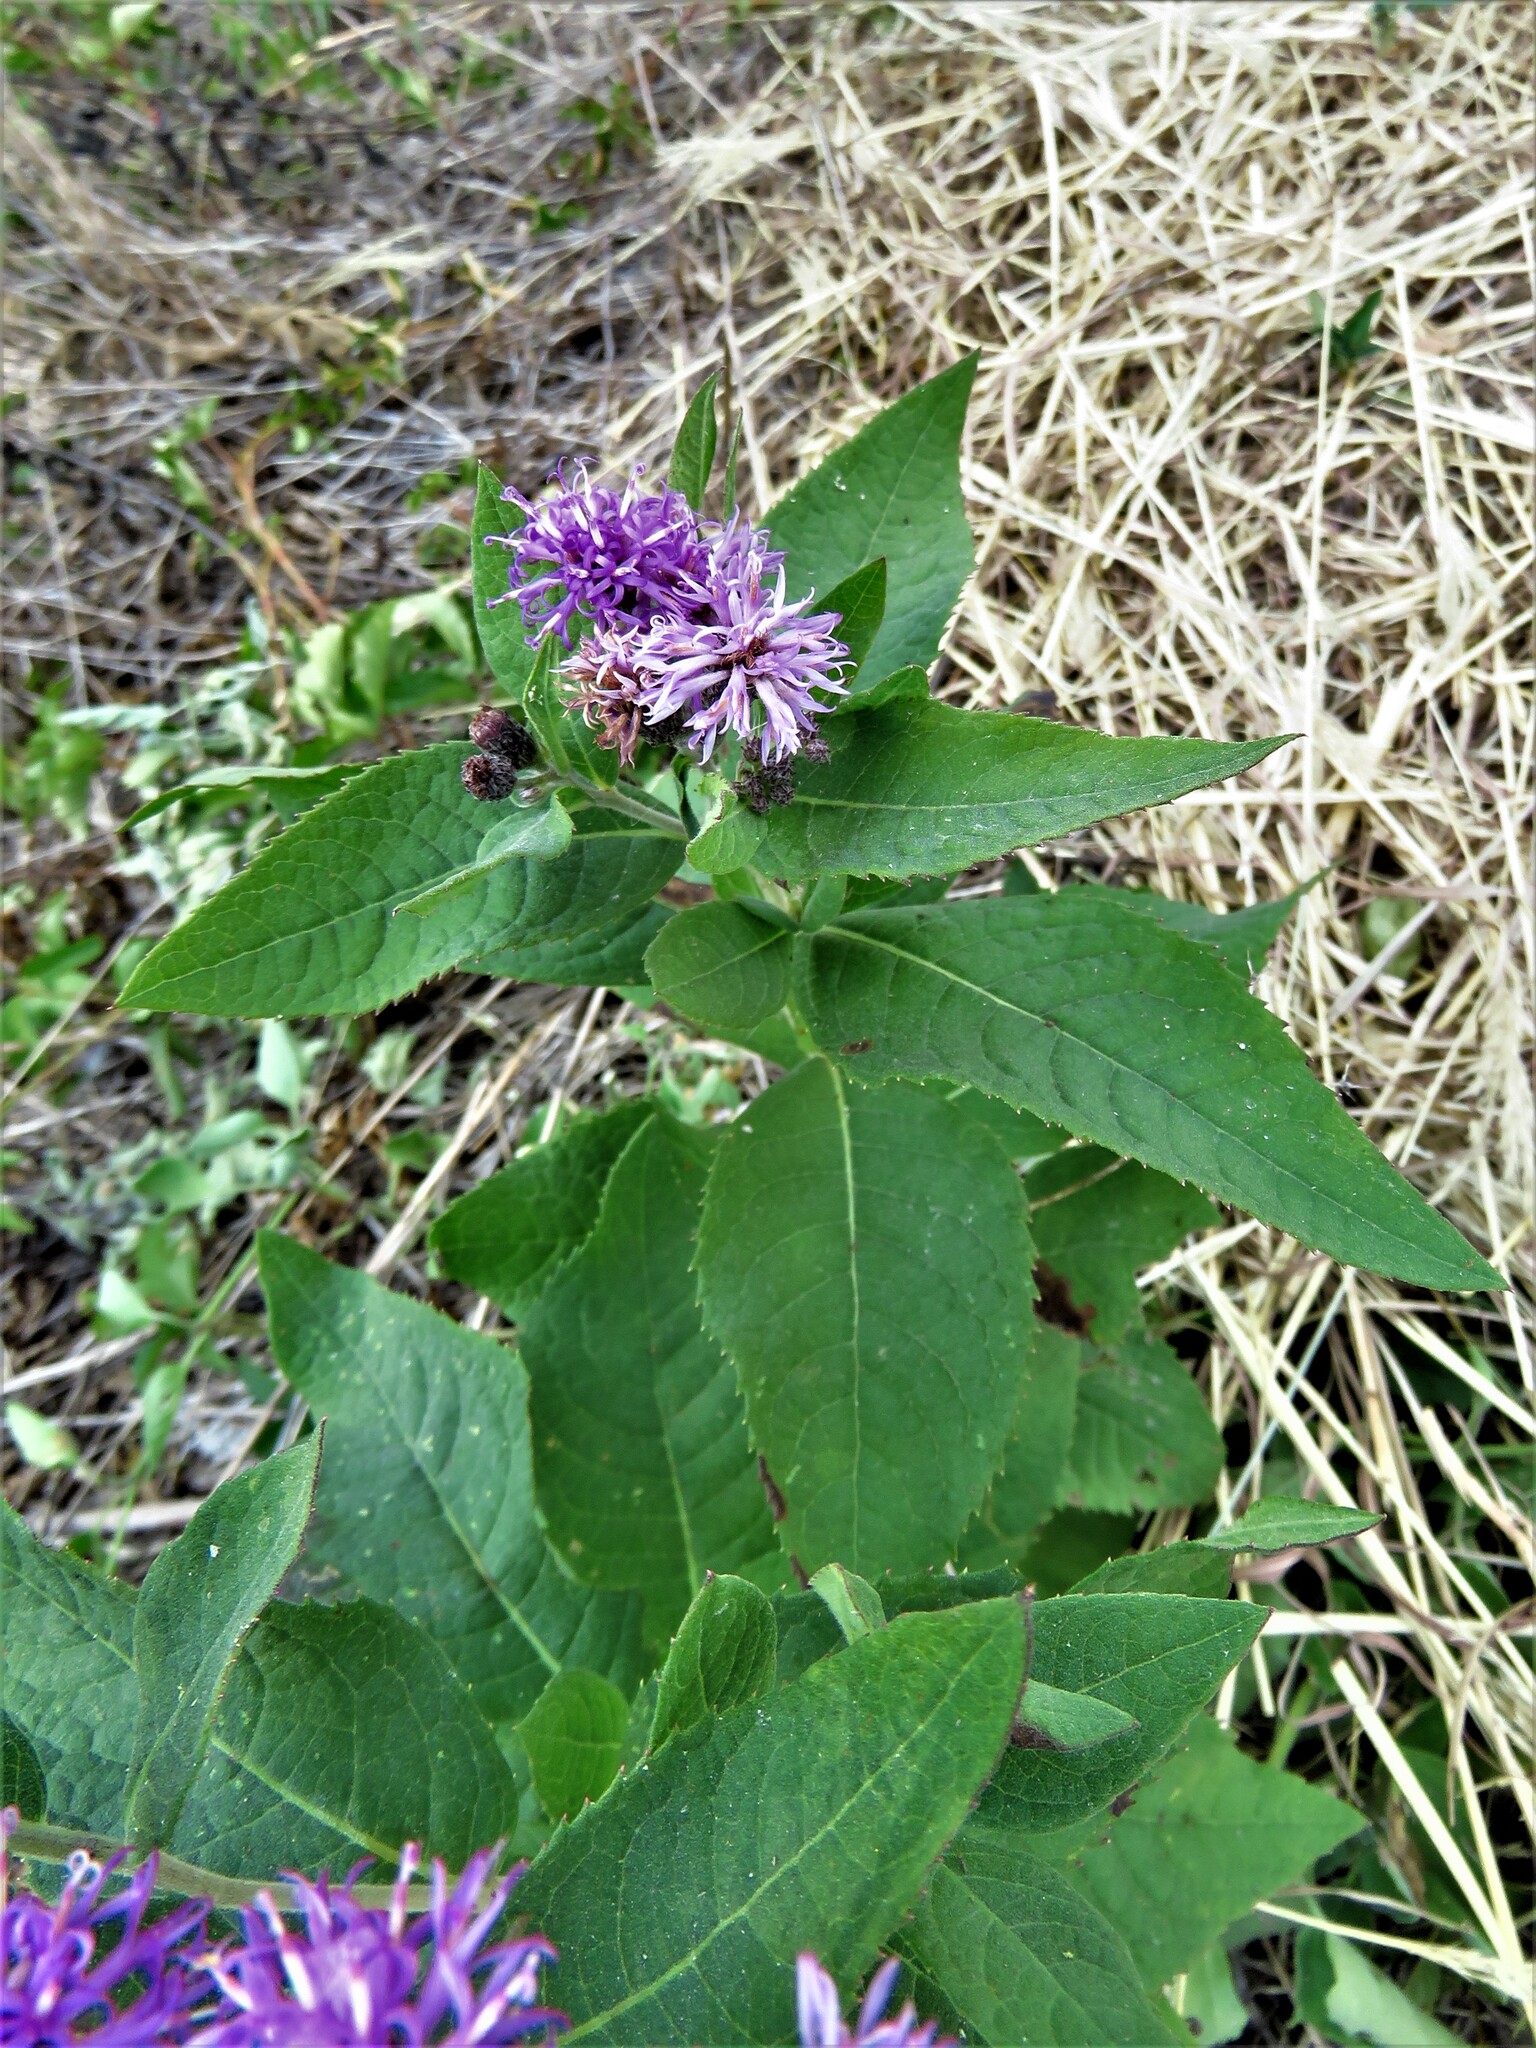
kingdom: Plantae
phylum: Tracheophyta
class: Magnoliopsida
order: Asterales
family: Asteraceae
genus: Vernonia
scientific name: Vernonia baldwinii
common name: Western ironweed
